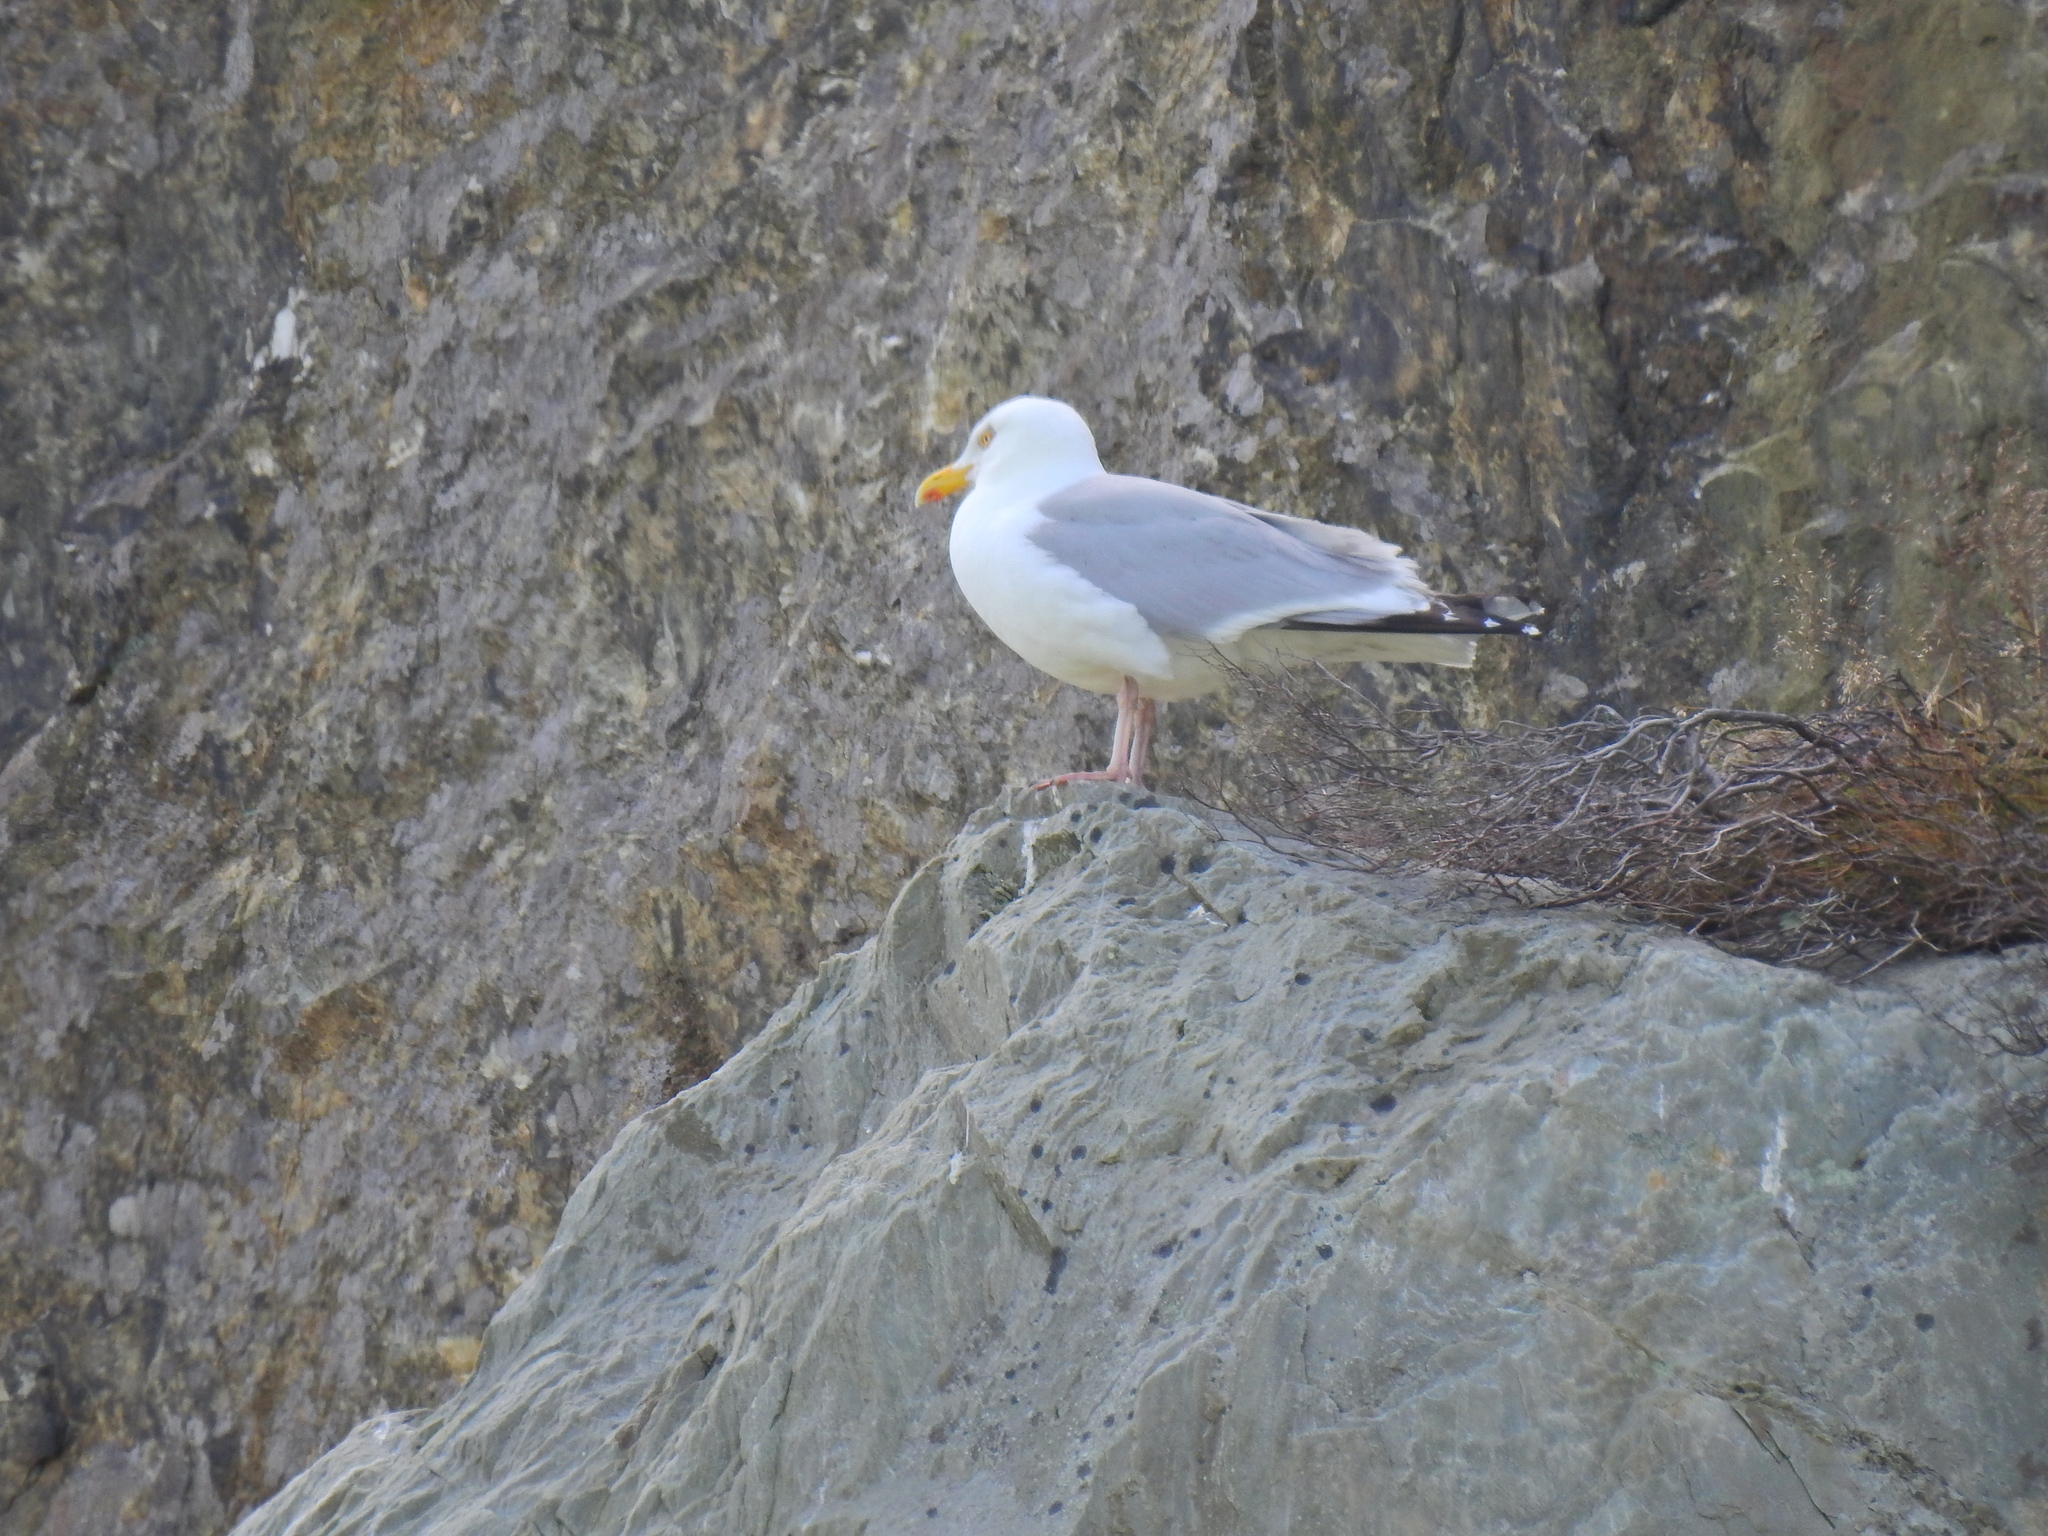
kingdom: Animalia
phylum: Chordata
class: Aves
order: Charadriiformes
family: Laridae
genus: Larus
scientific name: Larus argentatus
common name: Herring gull
